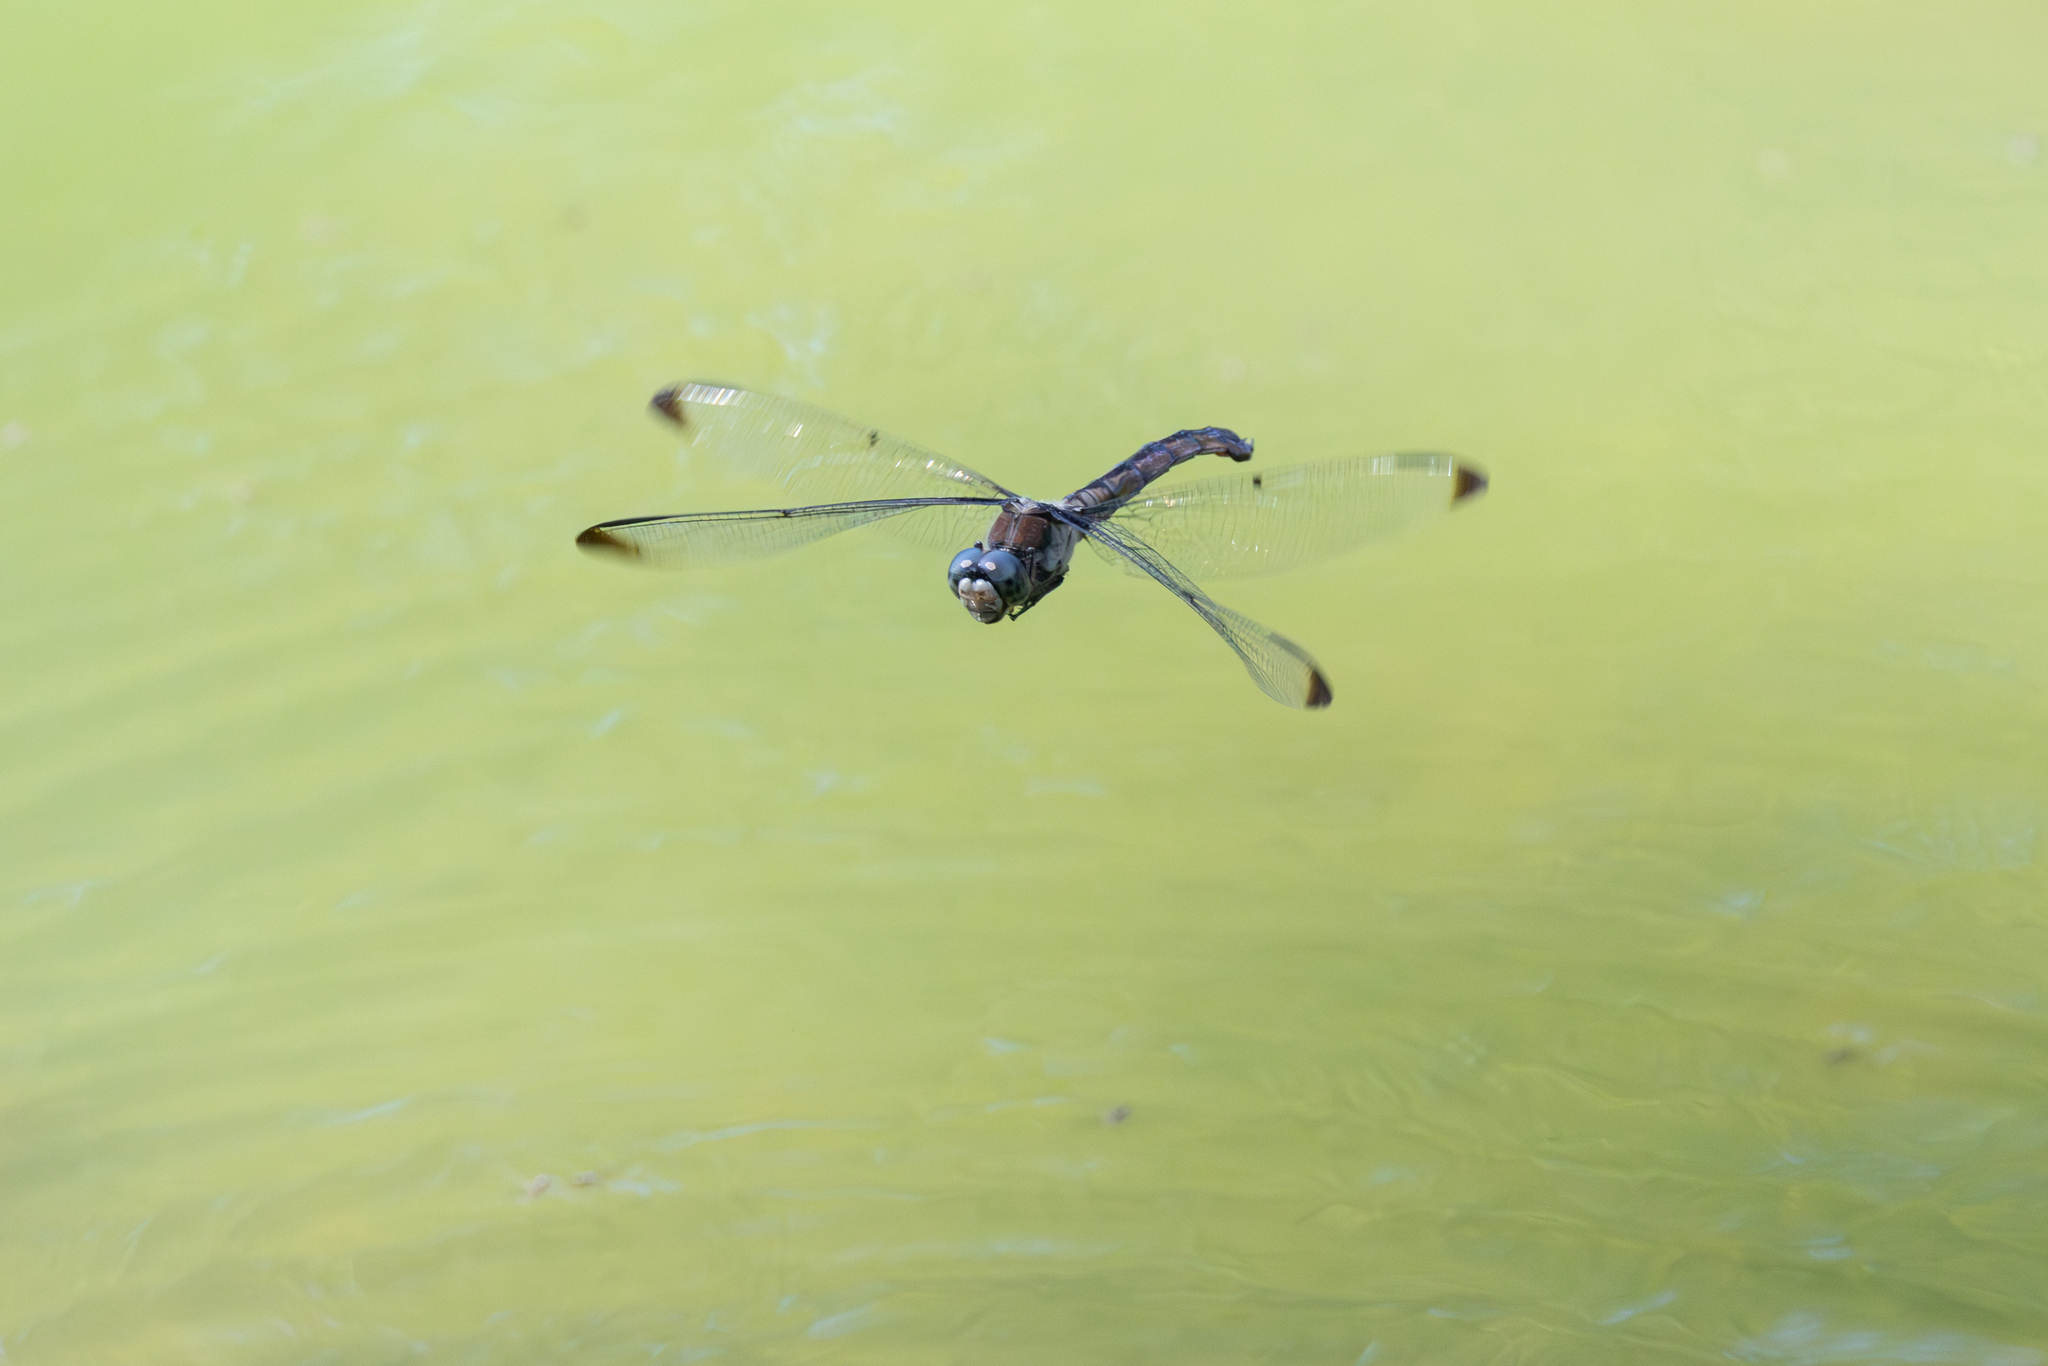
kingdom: Animalia
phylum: Arthropoda
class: Insecta
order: Odonata
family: Libellulidae
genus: Libellula
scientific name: Libellula vibrans
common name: Great blue skimmer
